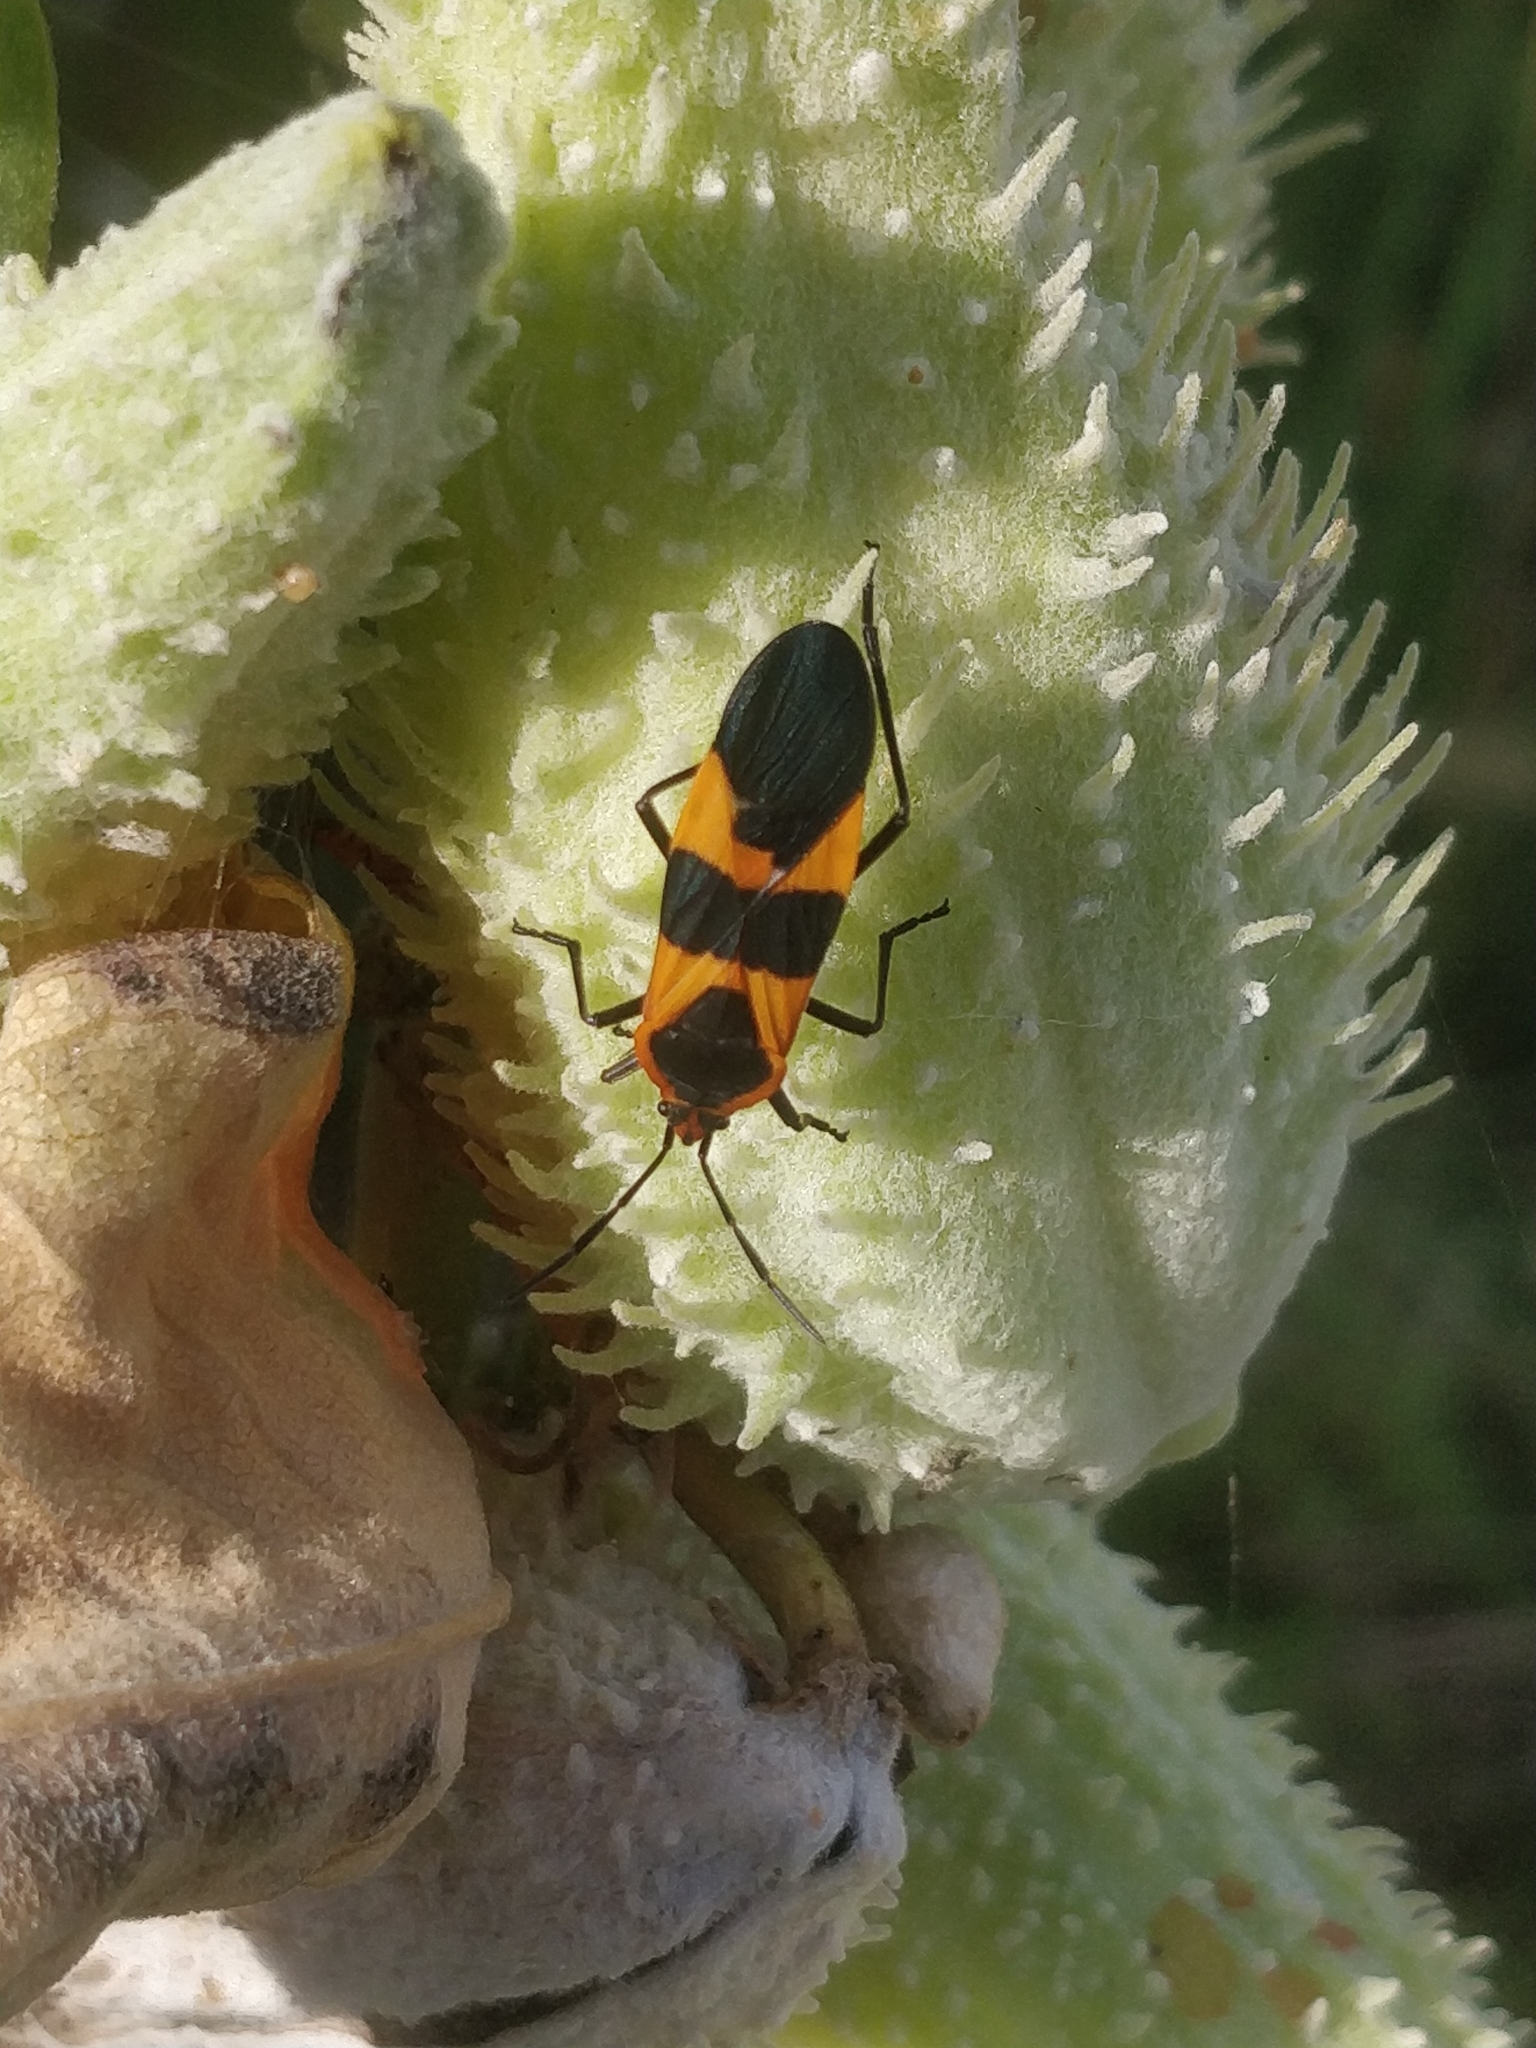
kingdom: Animalia
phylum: Arthropoda
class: Insecta
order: Hemiptera
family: Lygaeidae
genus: Oncopeltus
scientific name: Oncopeltus fasciatus
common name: Large milkweed bug
